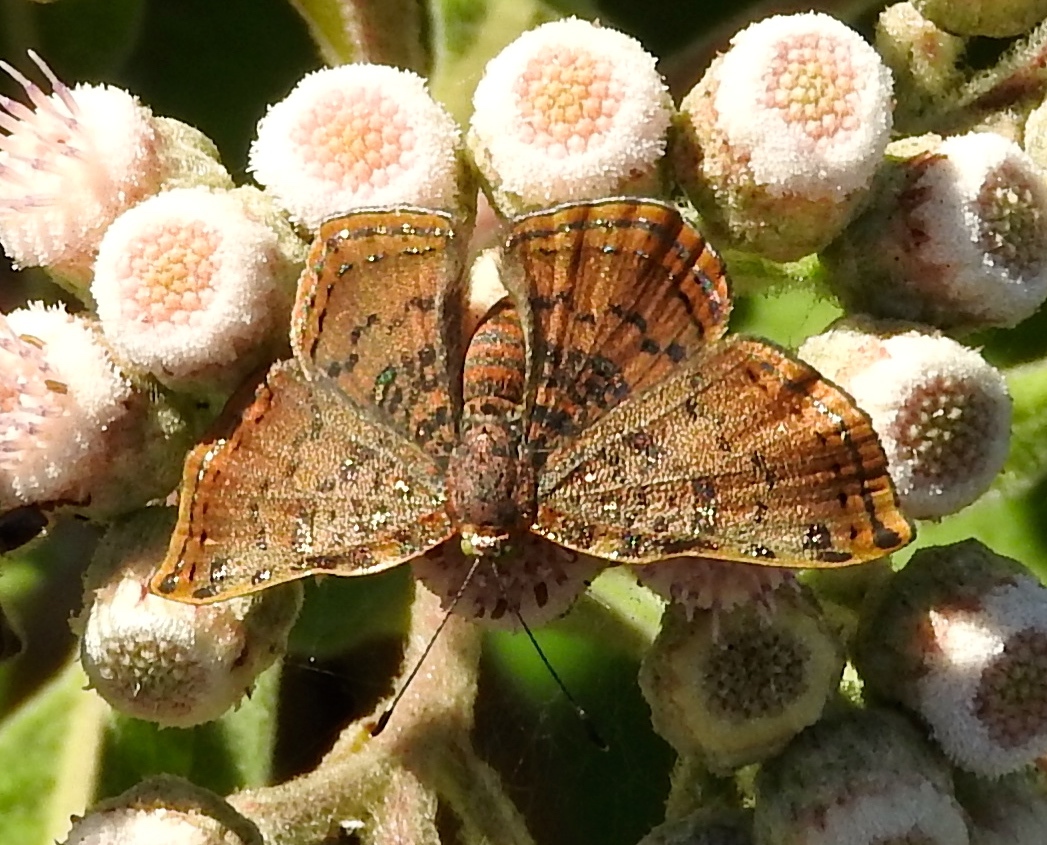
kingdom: Animalia
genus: Caria
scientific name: Caria ino
